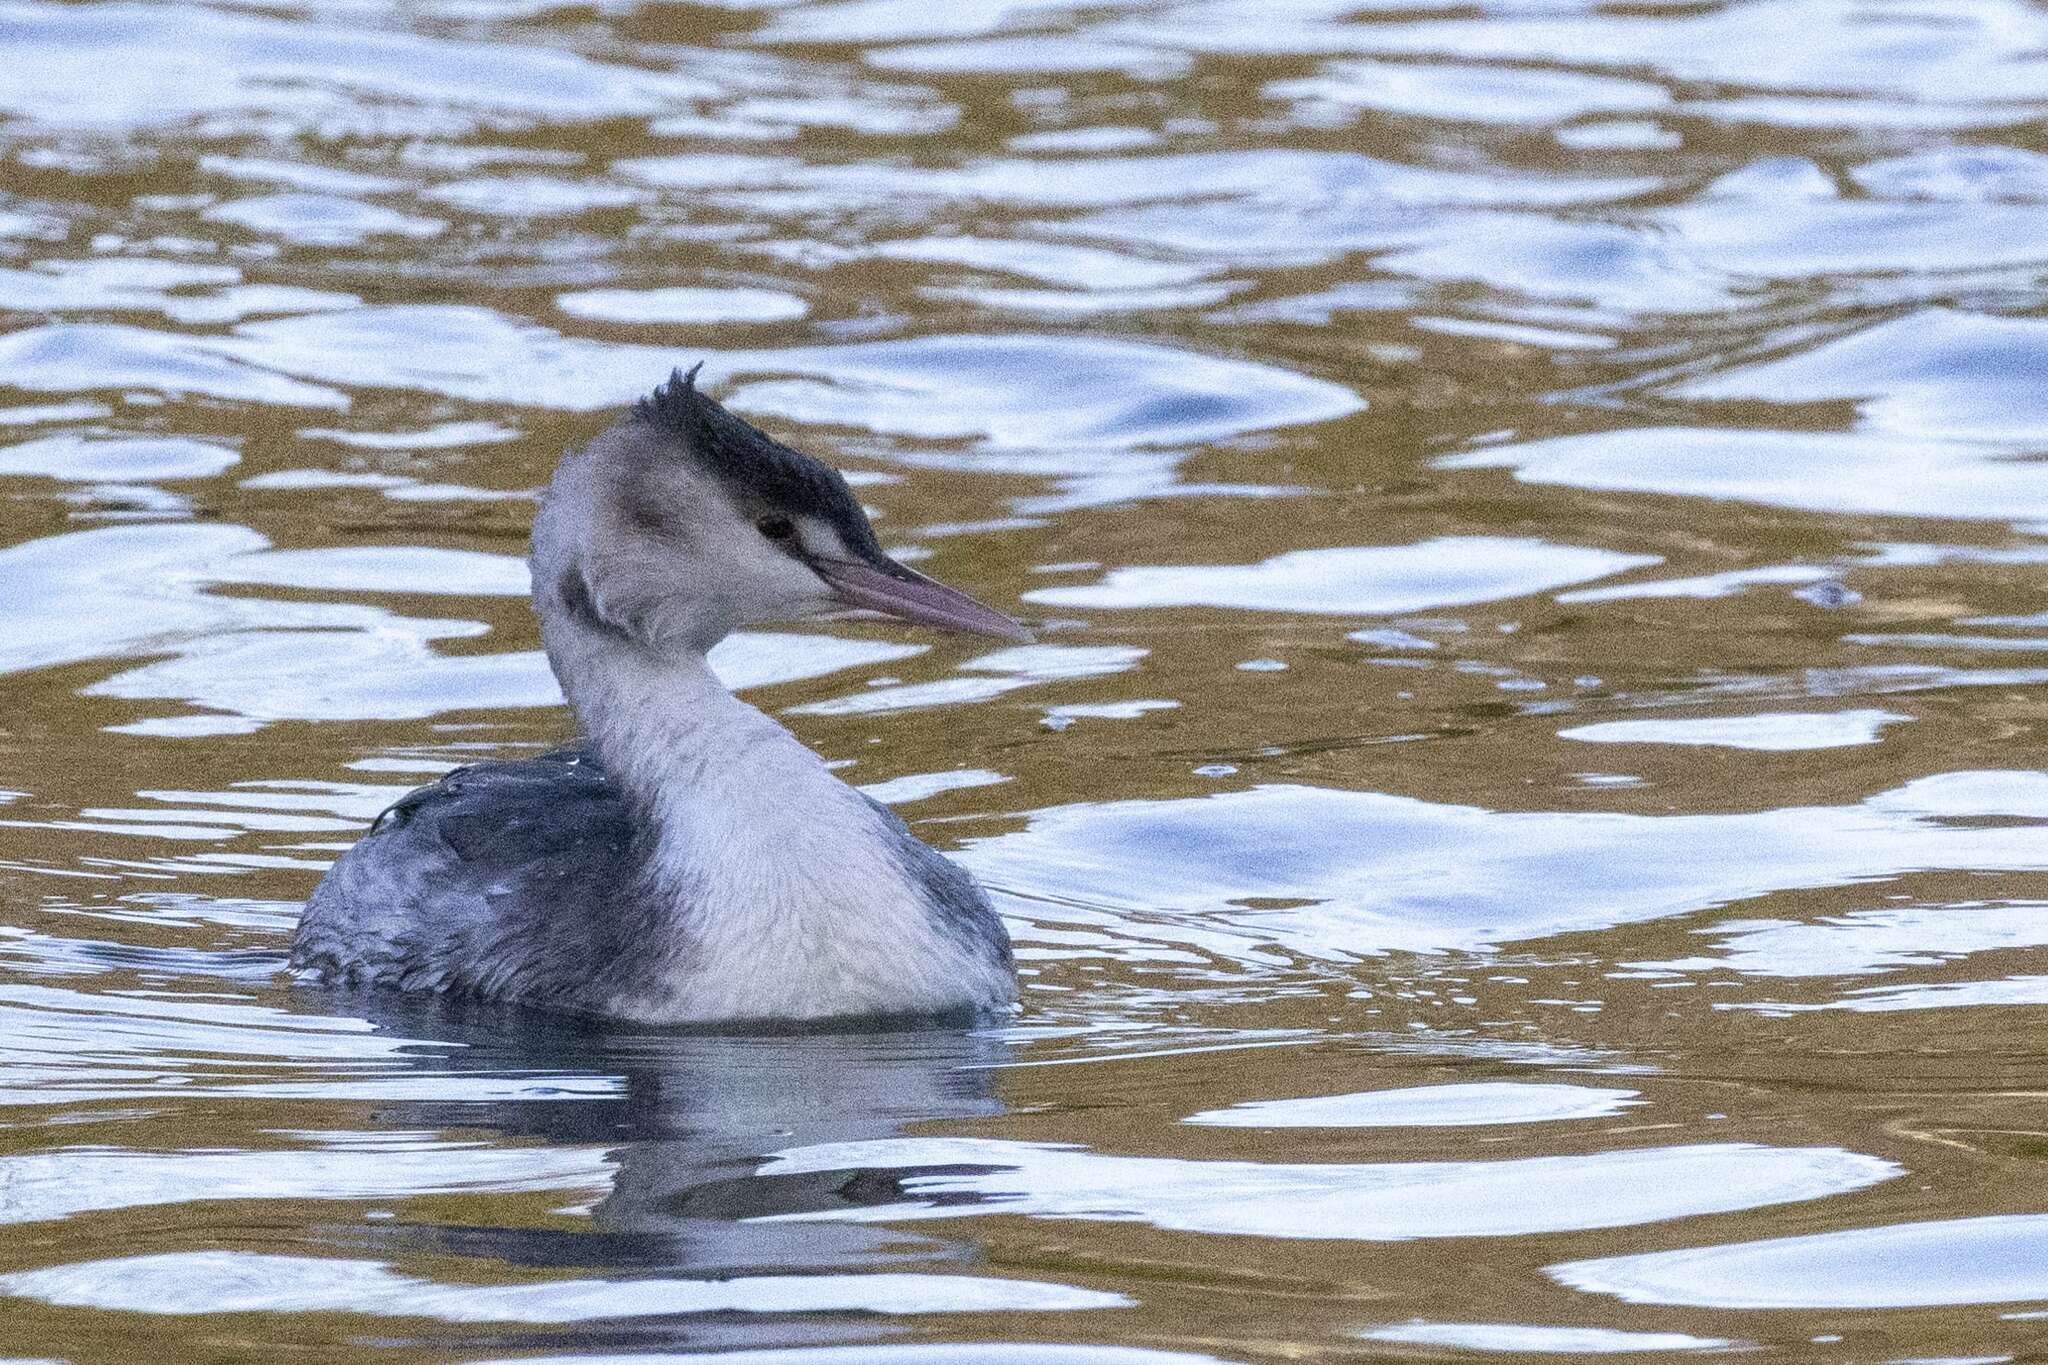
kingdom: Animalia
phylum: Chordata
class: Aves
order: Podicipediformes
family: Podicipedidae
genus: Podiceps
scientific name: Podiceps cristatus
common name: Great crested grebe
